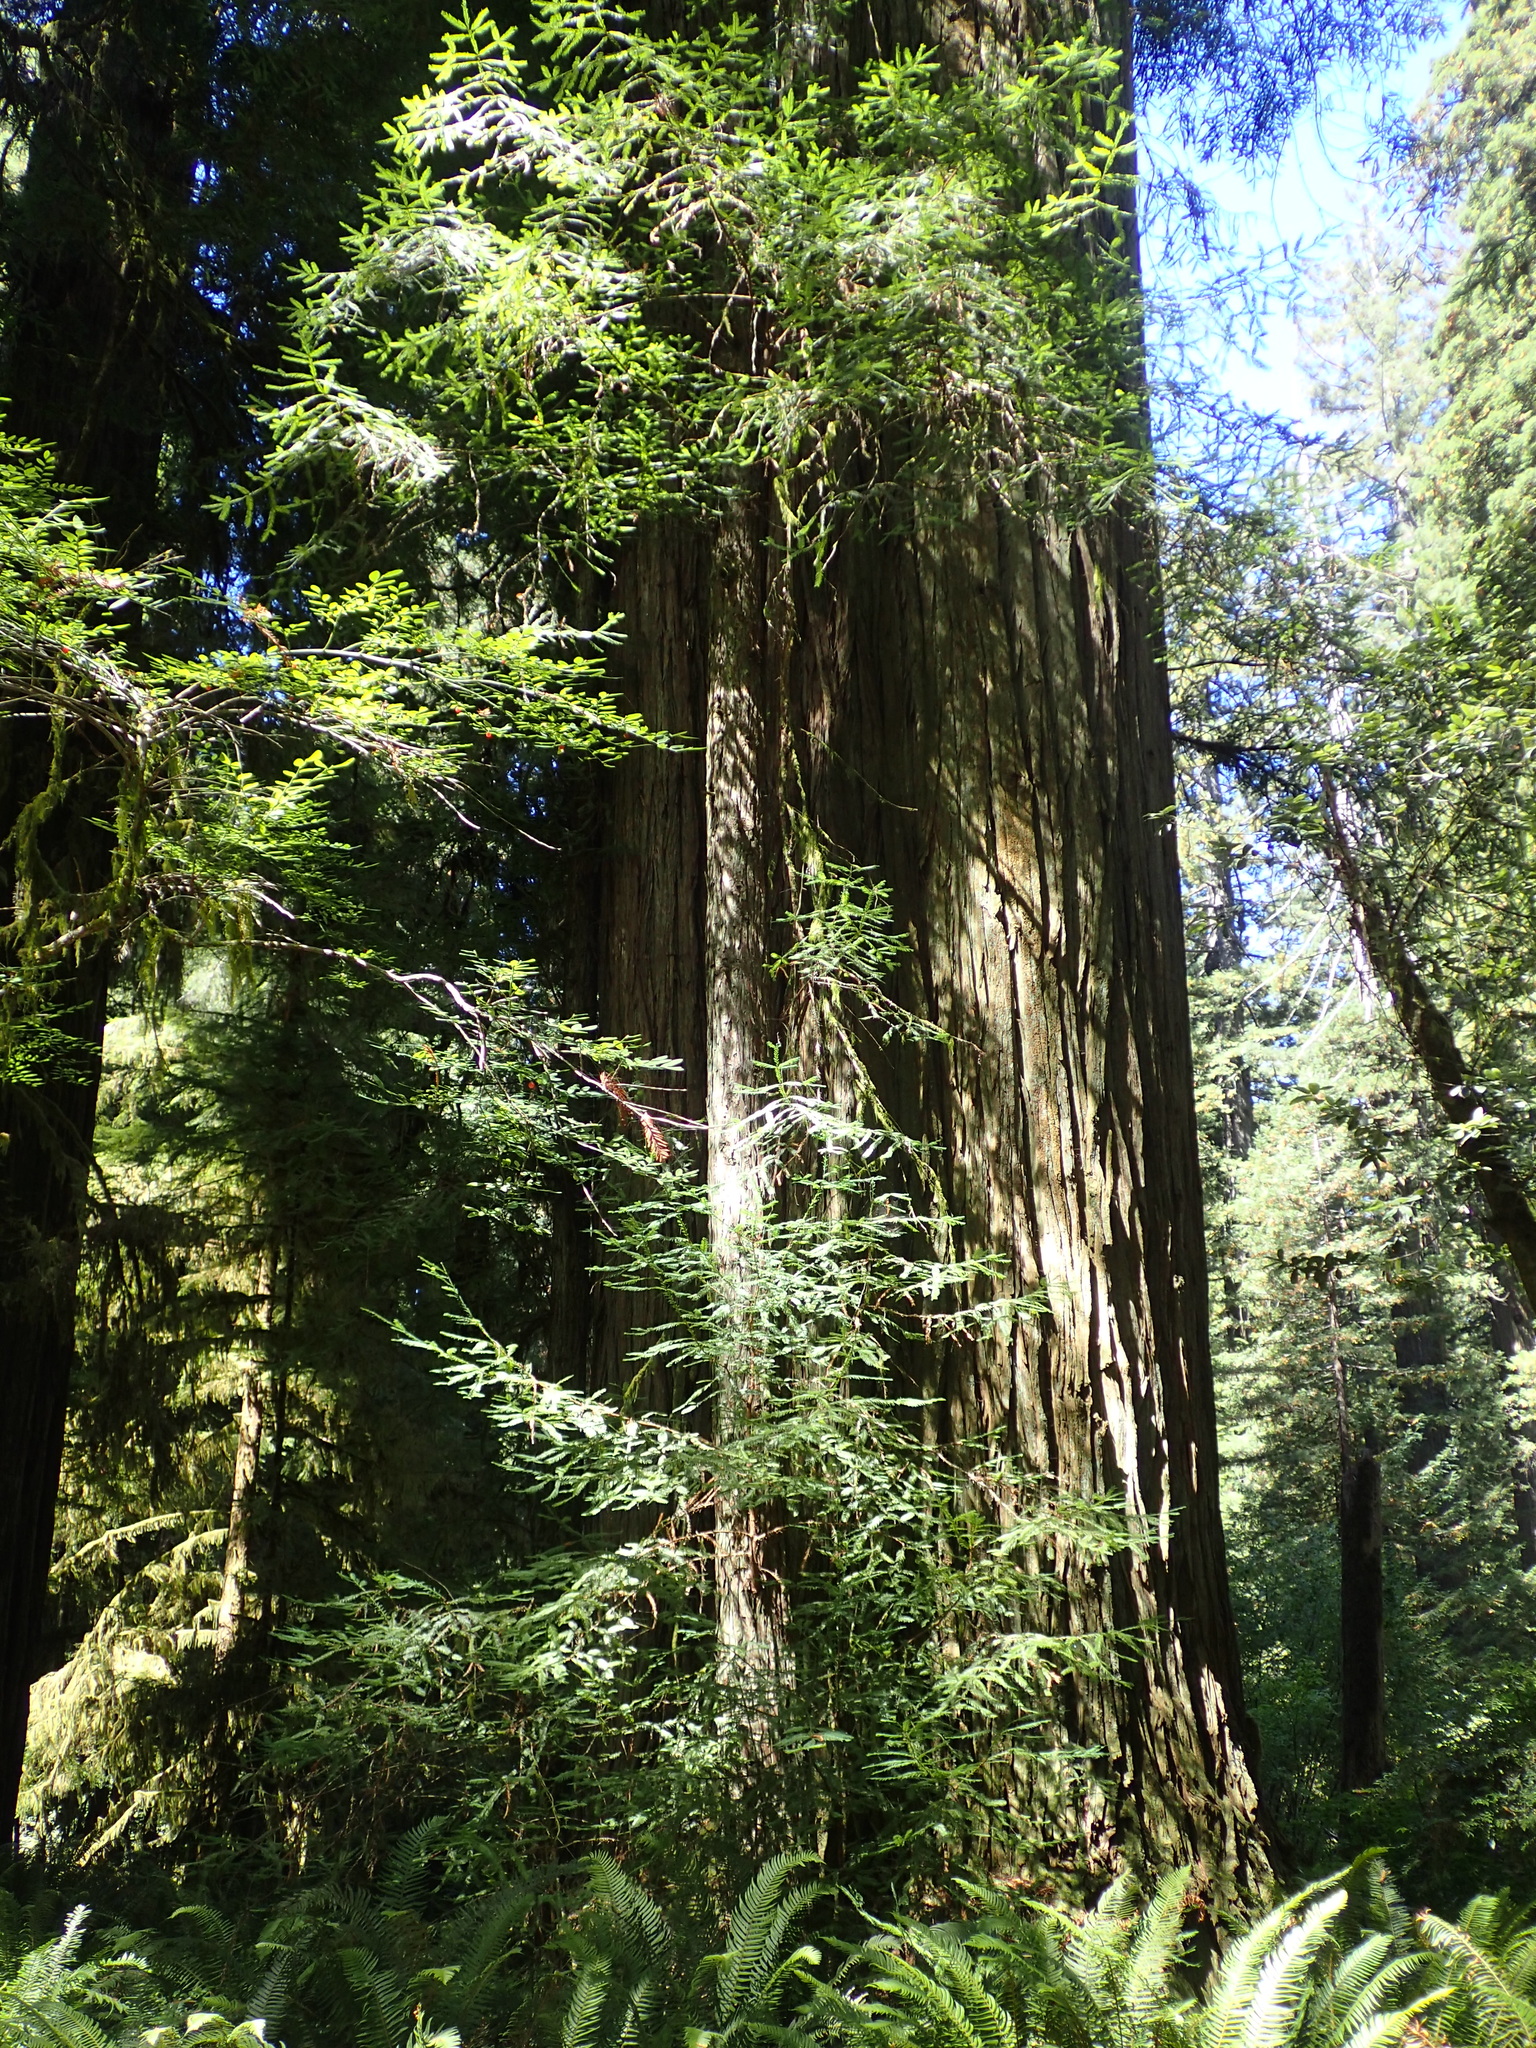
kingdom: Plantae
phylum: Tracheophyta
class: Pinopsida
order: Pinales
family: Cupressaceae
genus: Sequoia
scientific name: Sequoia sempervirens
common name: Coast redwood
